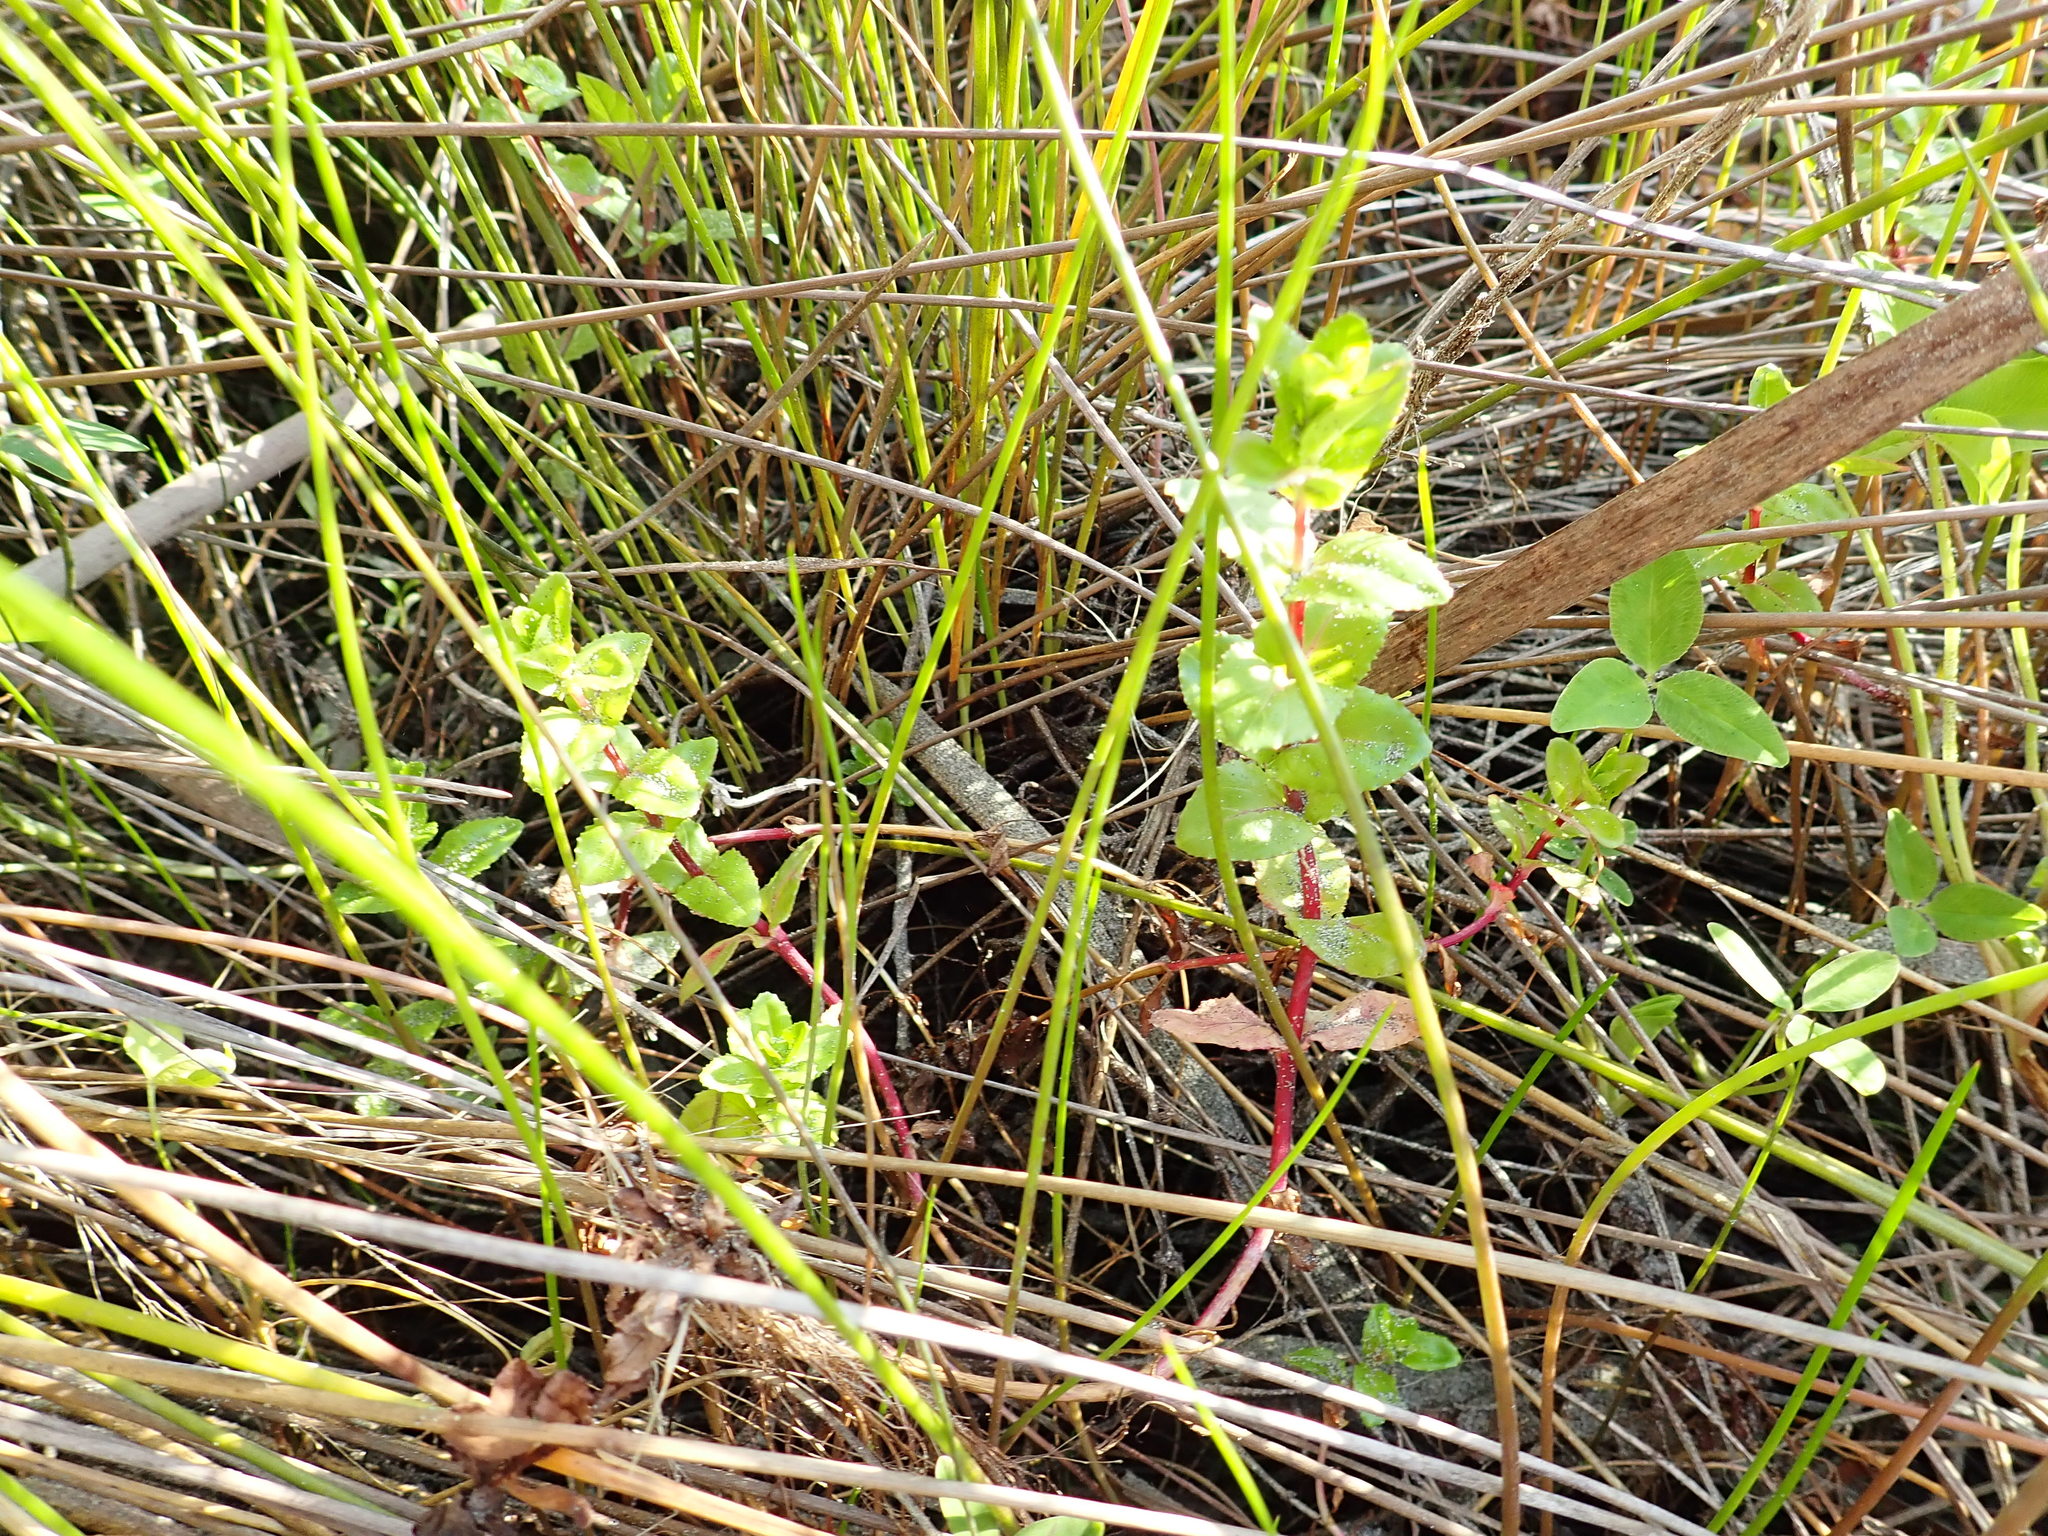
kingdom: Plantae
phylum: Tracheophyta
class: Magnoliopsida
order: Myrtales
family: Onagraceae
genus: Epilobium
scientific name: Epilobium billardiereanum
